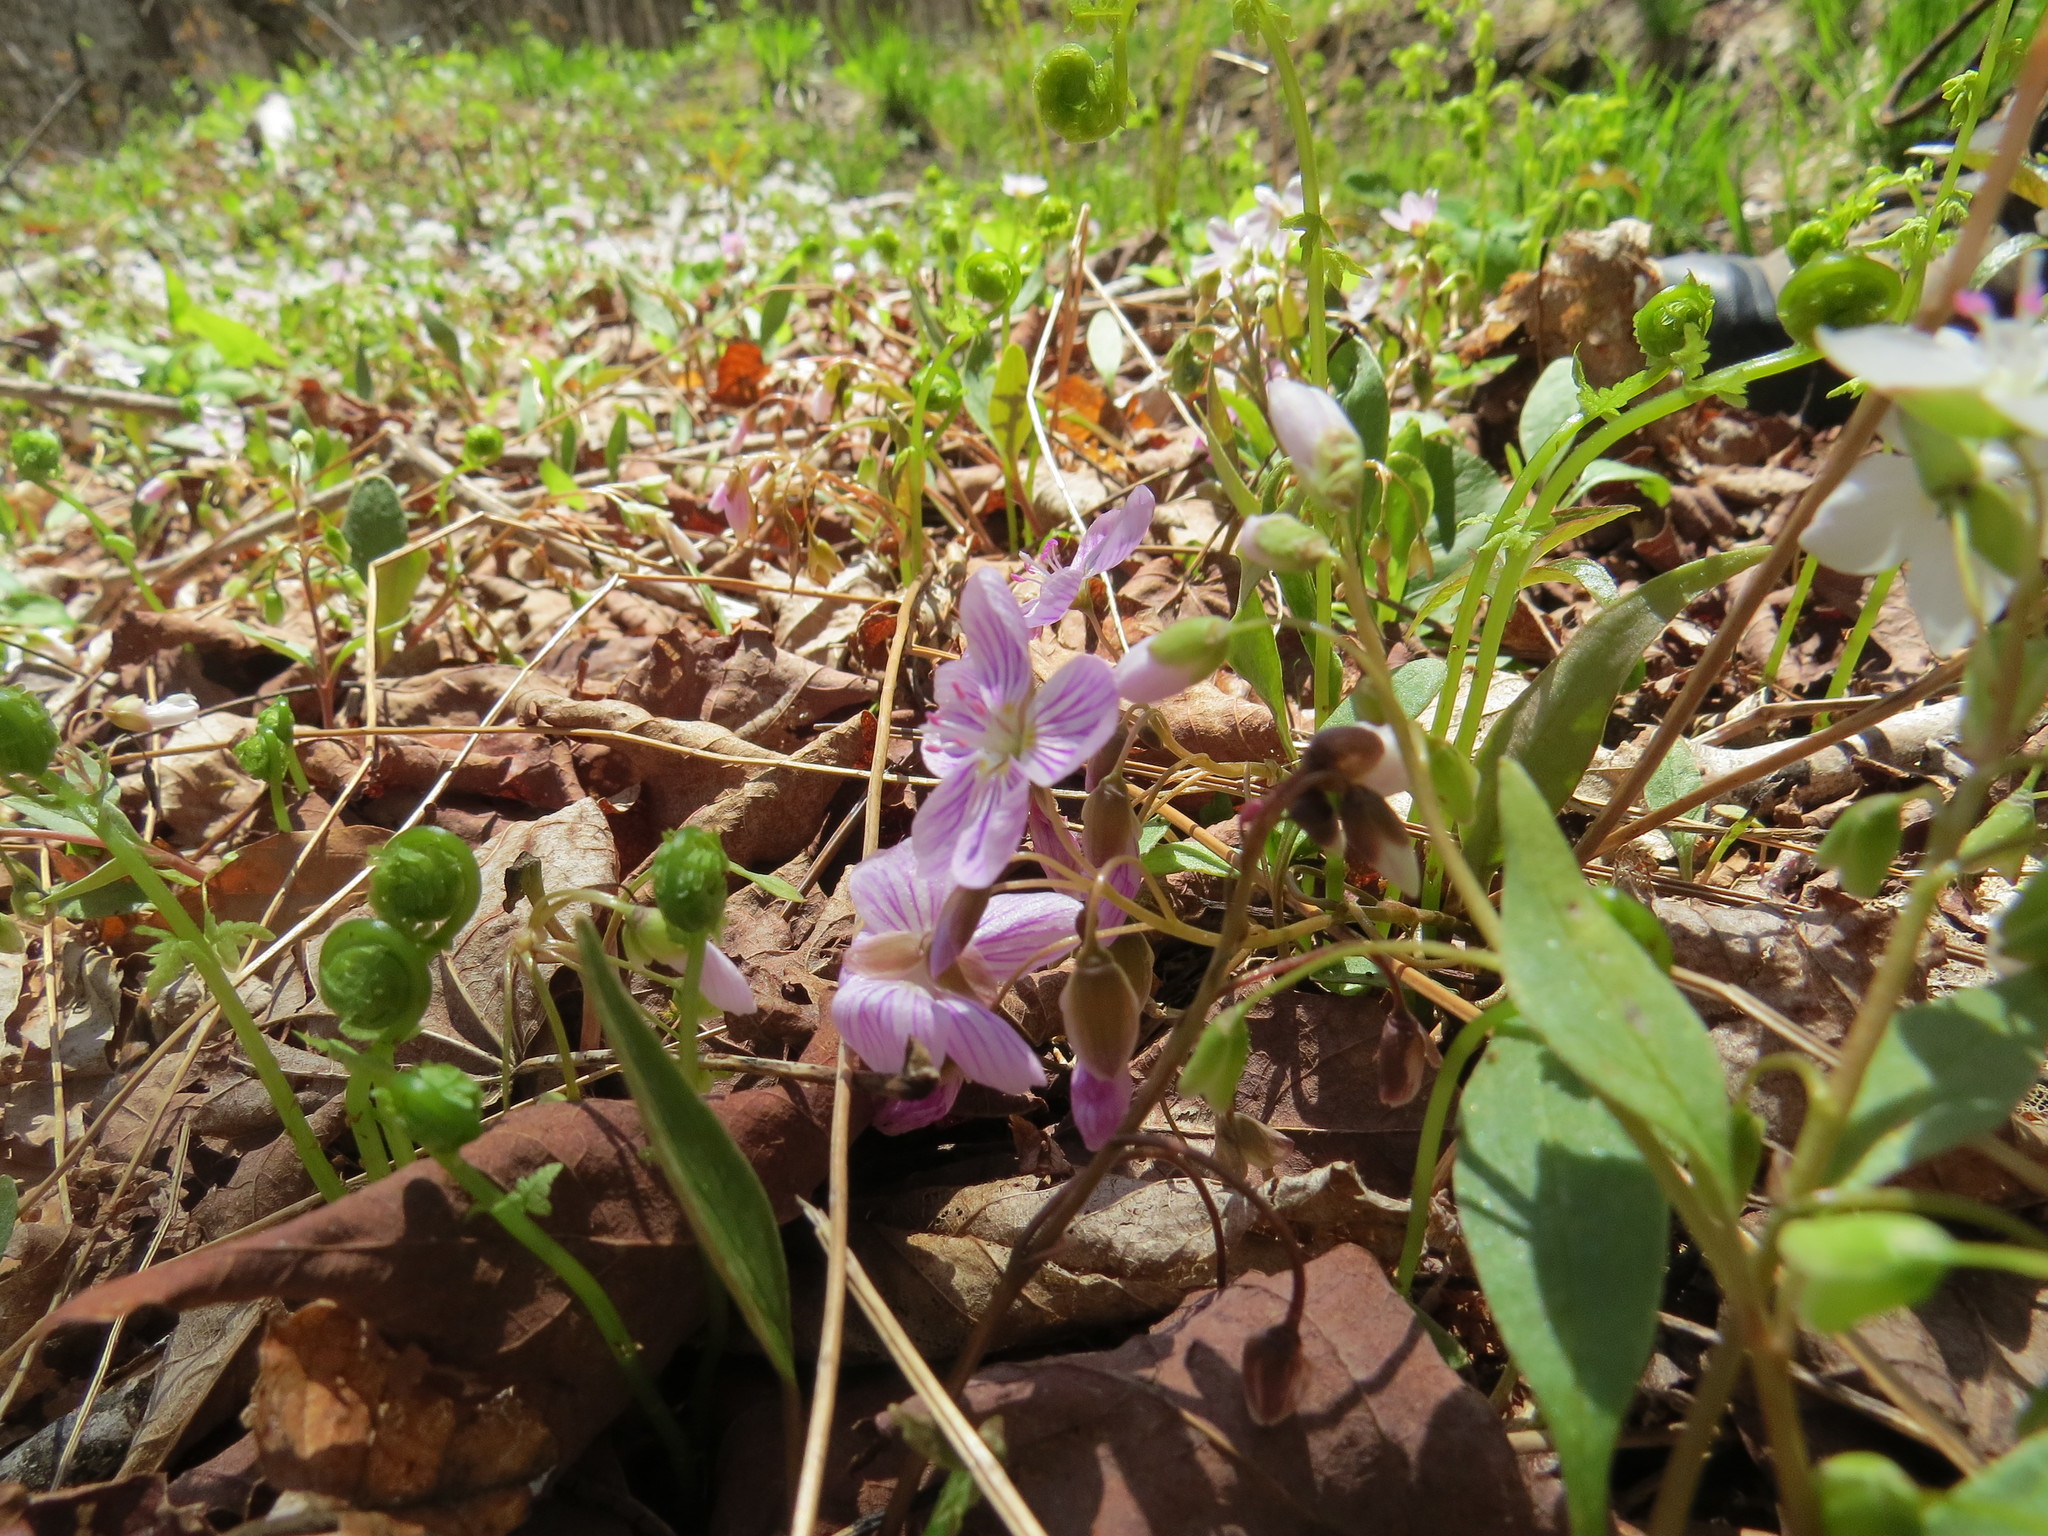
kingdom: Plantae
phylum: Tracheophyta
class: Magnoliopsida
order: Caryophyllales
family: Montiaceae
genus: Claytonia
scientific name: Claytonia caroliniana
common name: Carolina spring beauty
